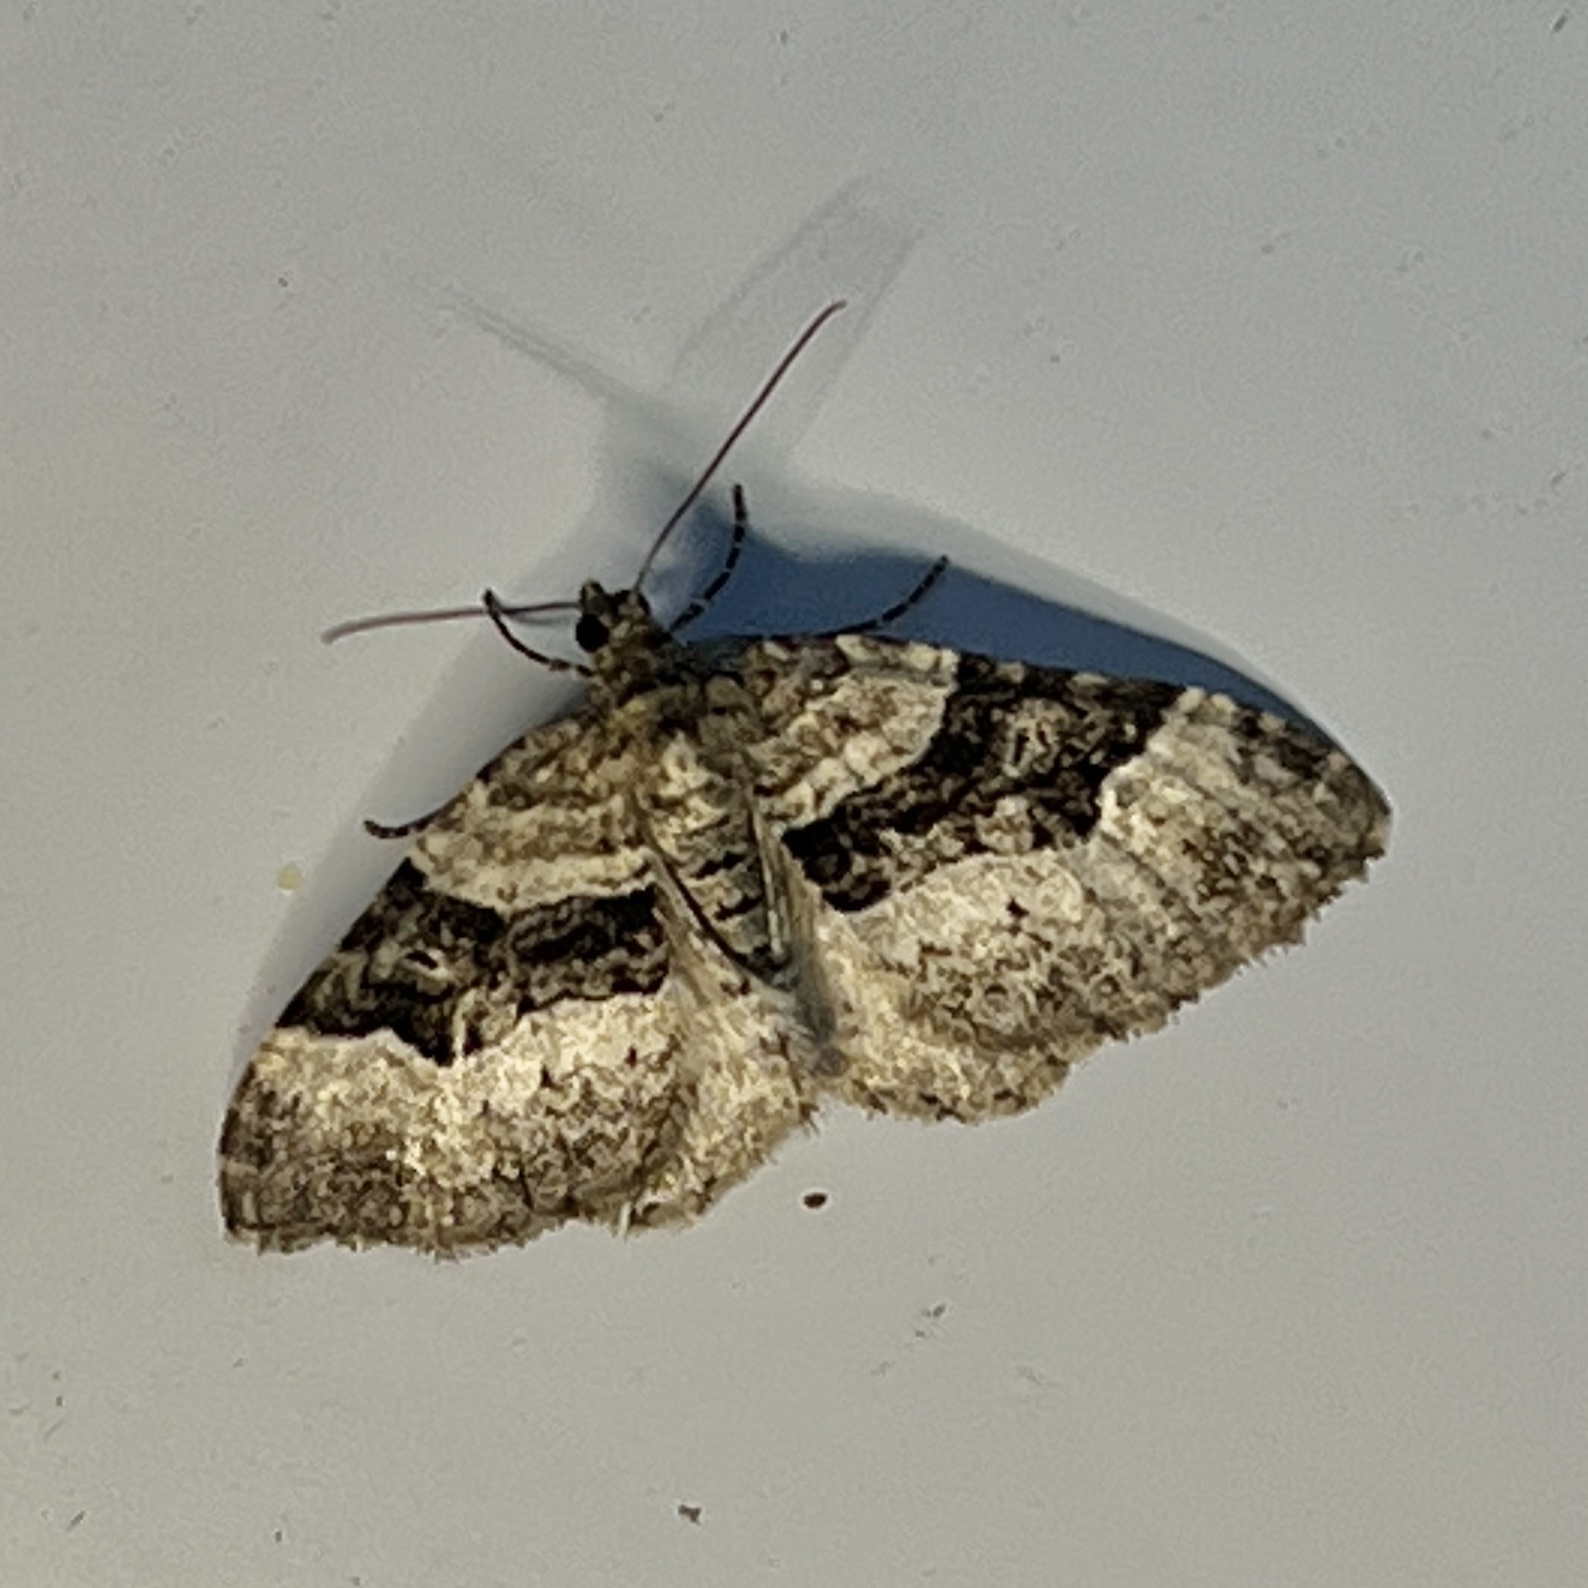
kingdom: Animalia
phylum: Arthropoda
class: Insecta
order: Lepidoptera
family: Geometridae
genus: Xanthorhoe
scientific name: Xanthorhoe lacustrata
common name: Toothed brown carpet
